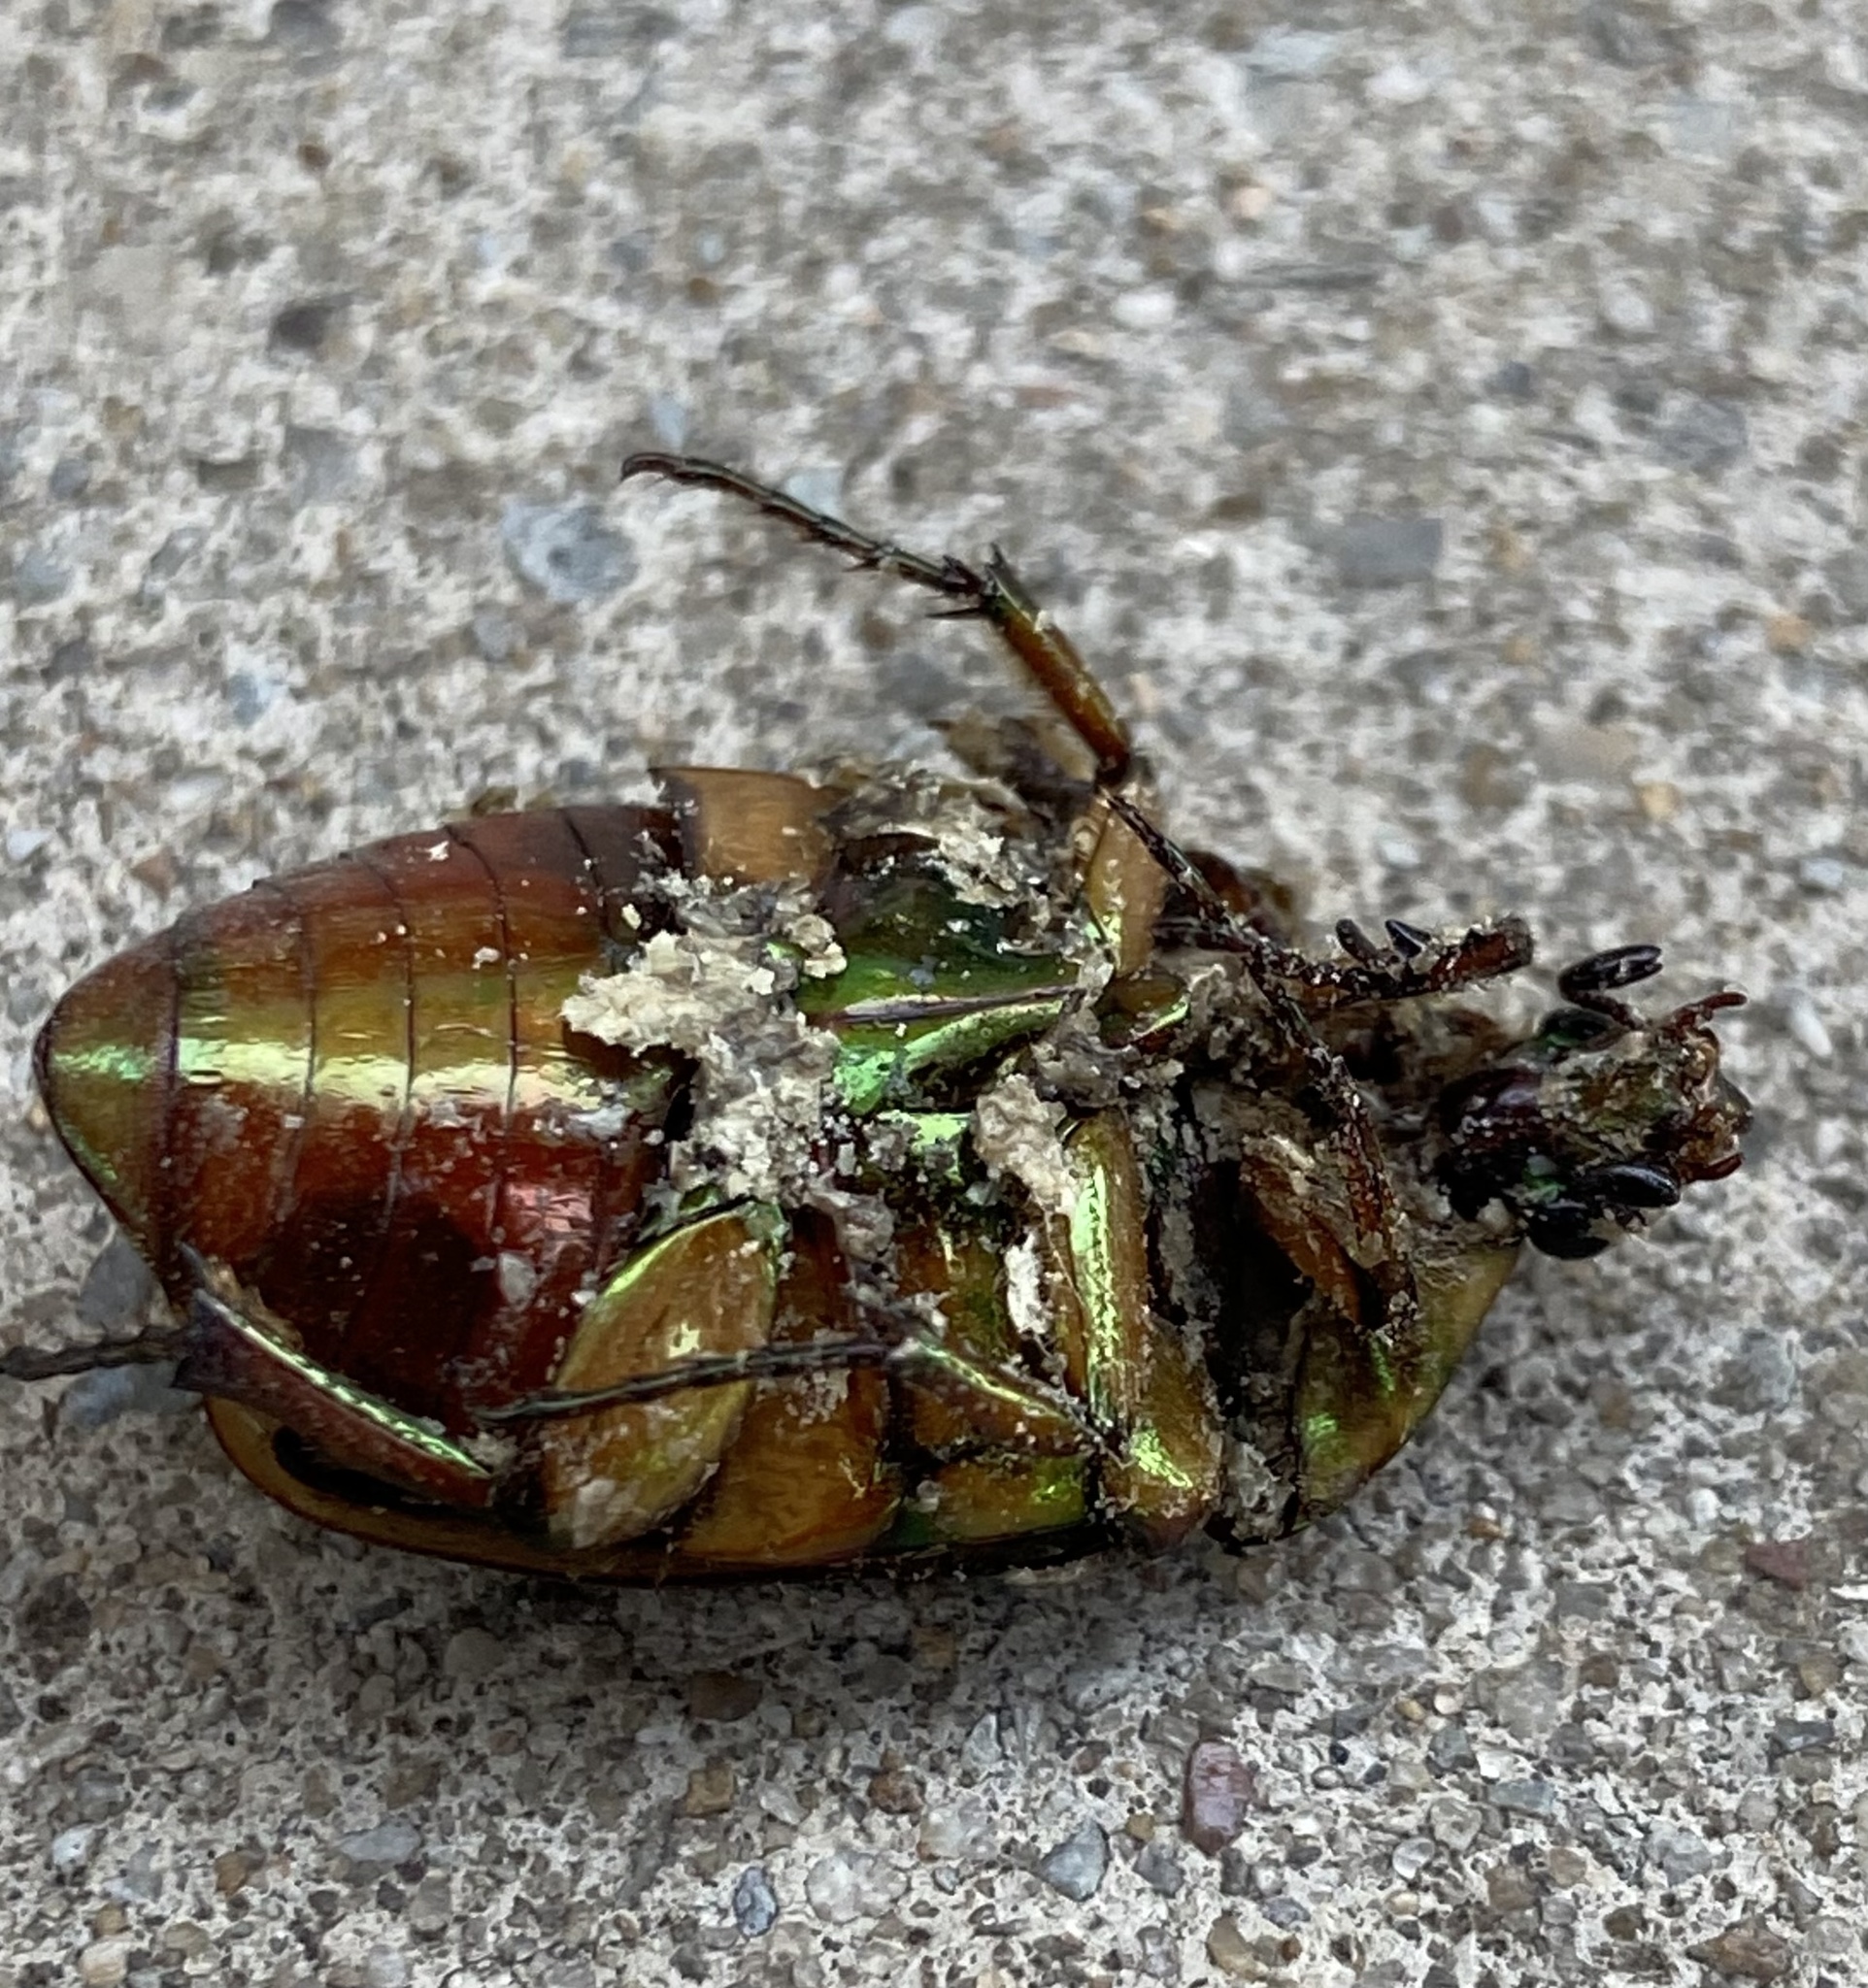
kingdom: Animalia
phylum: Arthropoda
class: Insecta
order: Coleoptera
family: Scarabaeidae
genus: Cotinis
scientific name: Cotinis nitida
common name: Common green june beetle
